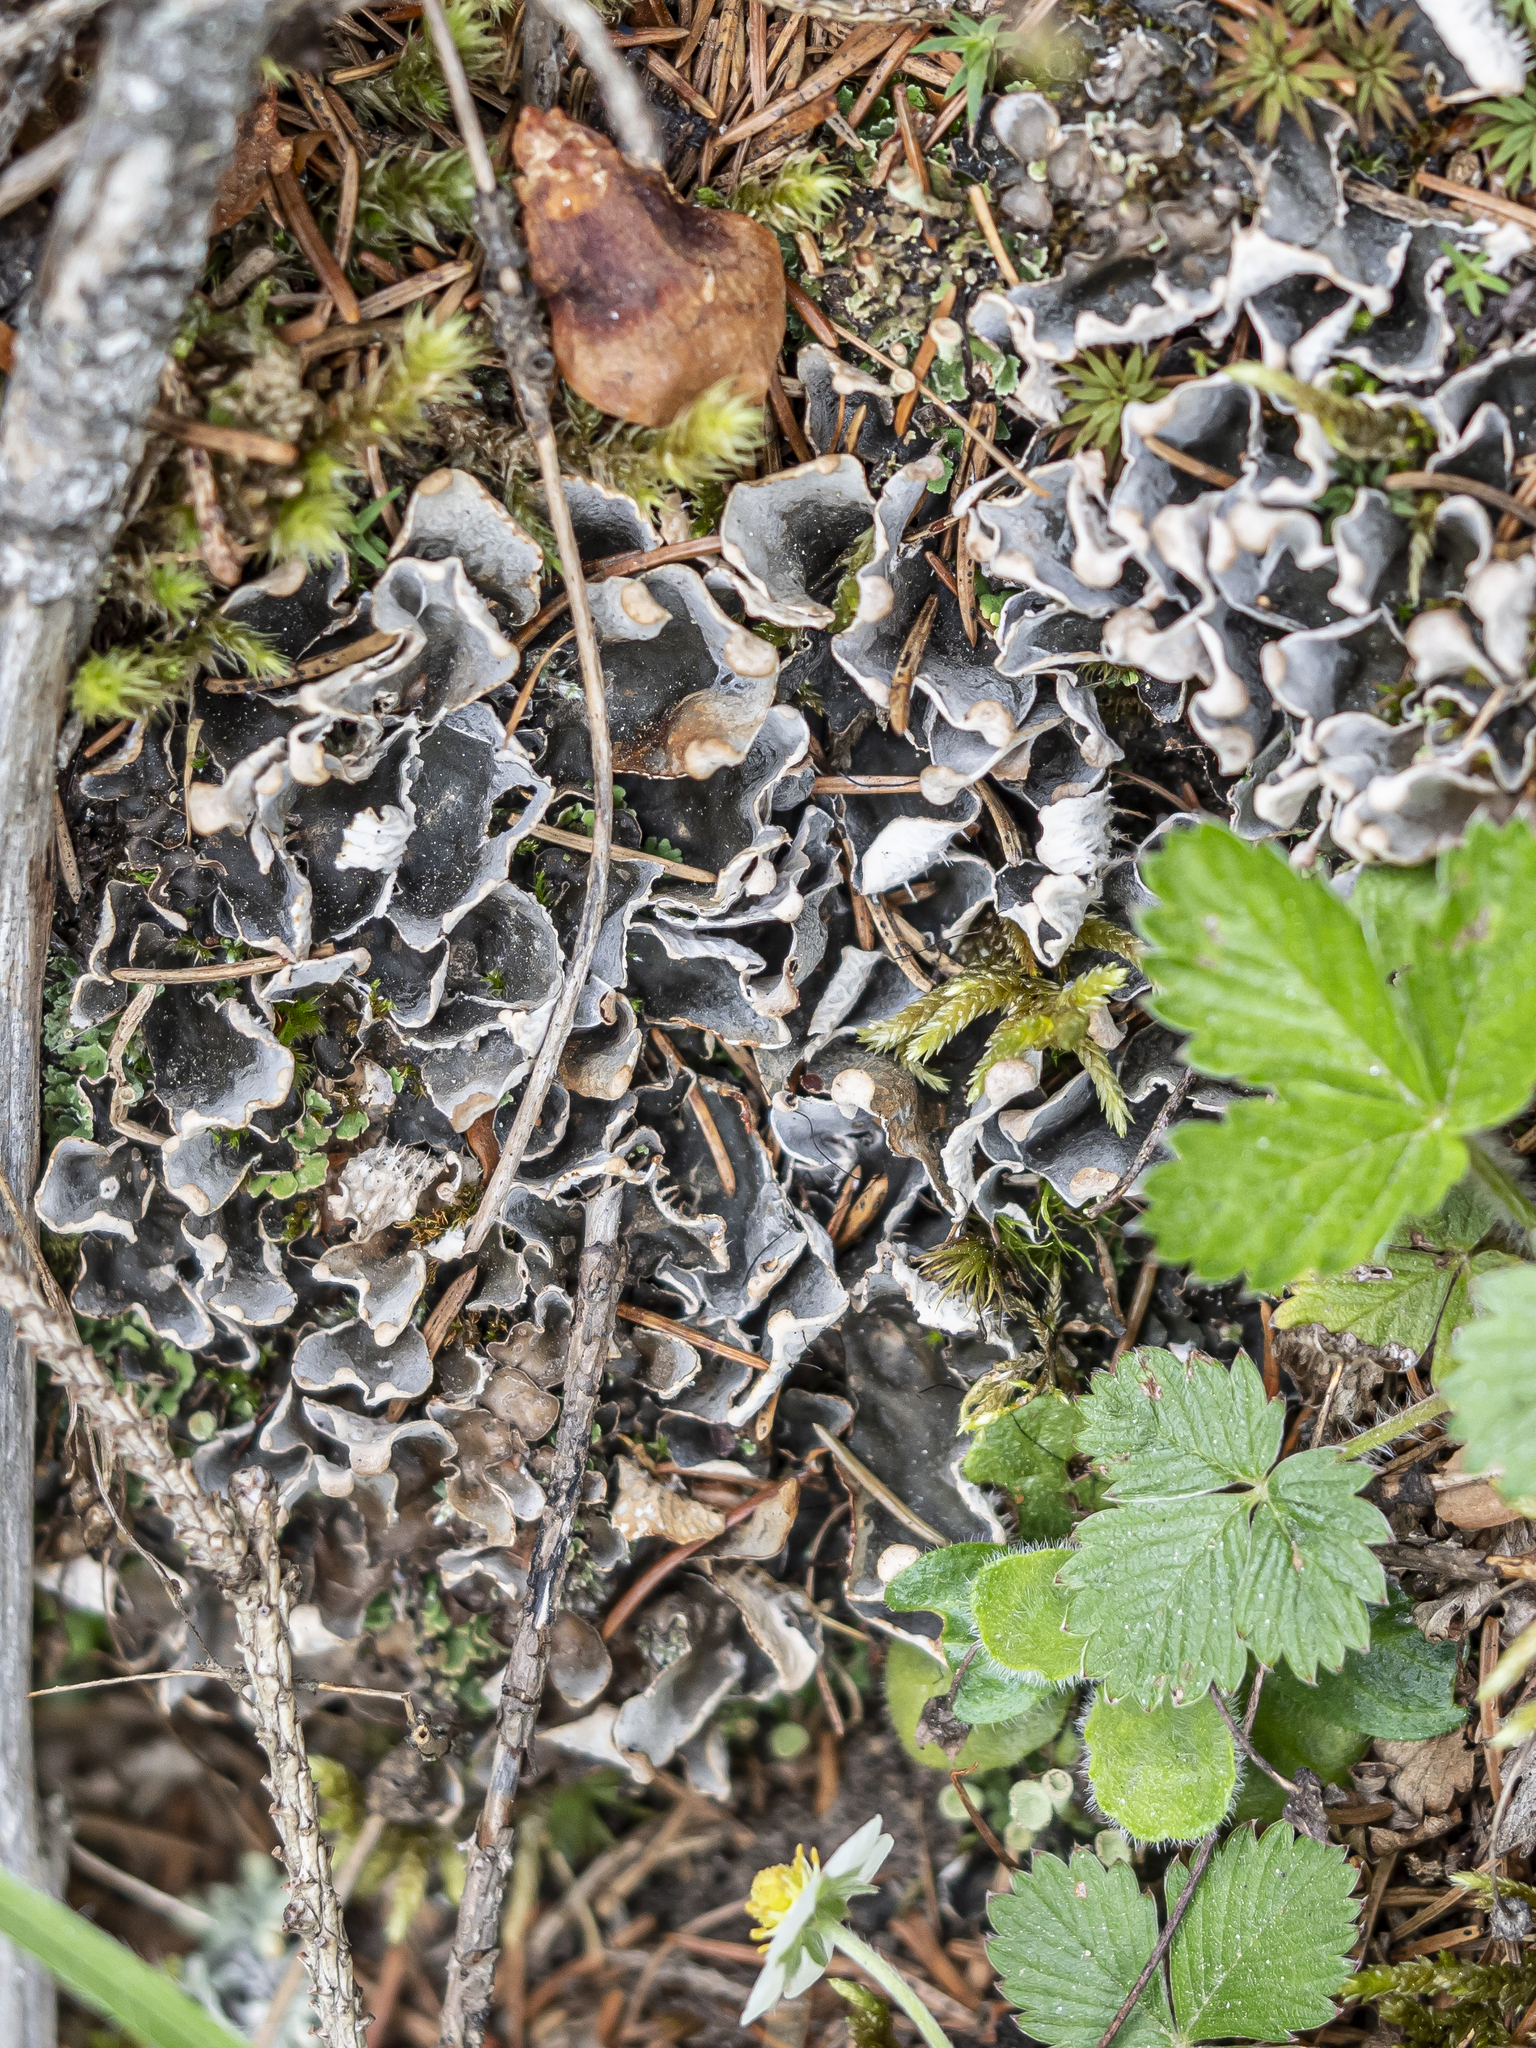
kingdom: Fungi
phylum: Ascomycota
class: Lecanoromycetes
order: Peltigerales
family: Peltigeraceae
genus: Peltigera
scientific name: Peltigera didactyla
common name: Alternating dog lichen
